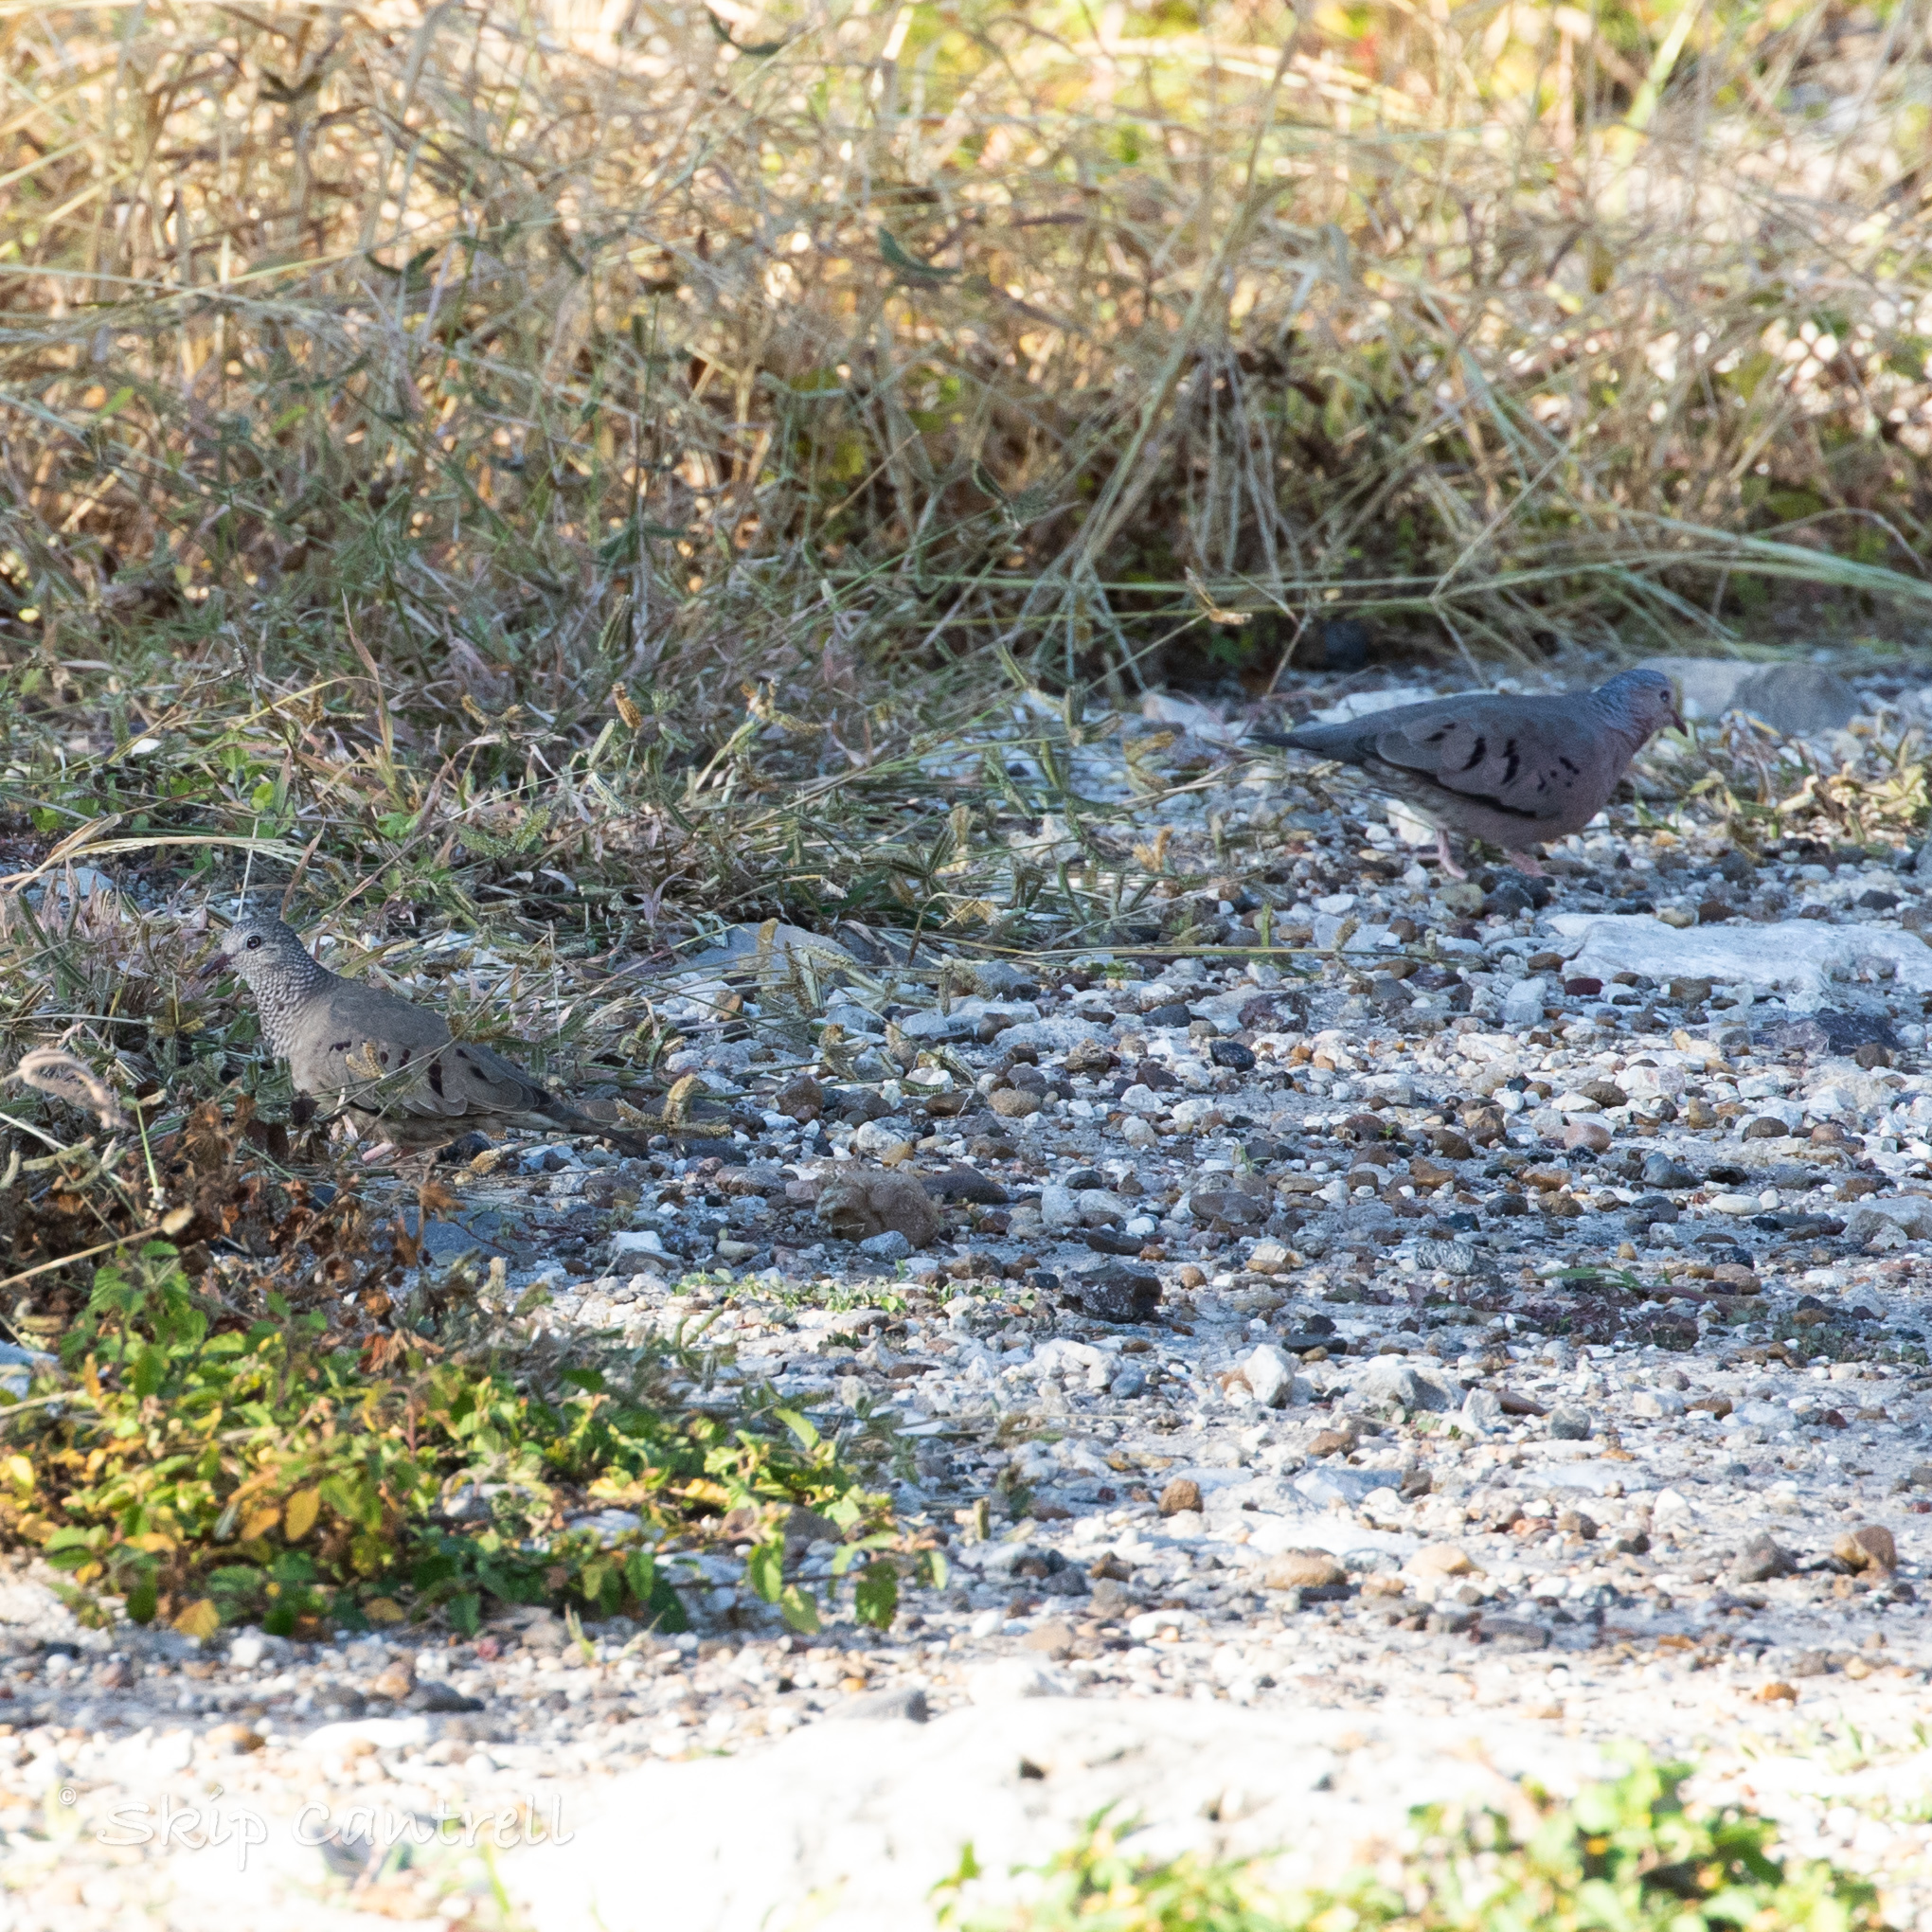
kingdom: Animalia
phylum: Chordata
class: Aves
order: Columbiformes
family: Columbidae
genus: Columbina
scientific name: Columbina passerina
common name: Common ground-dove
